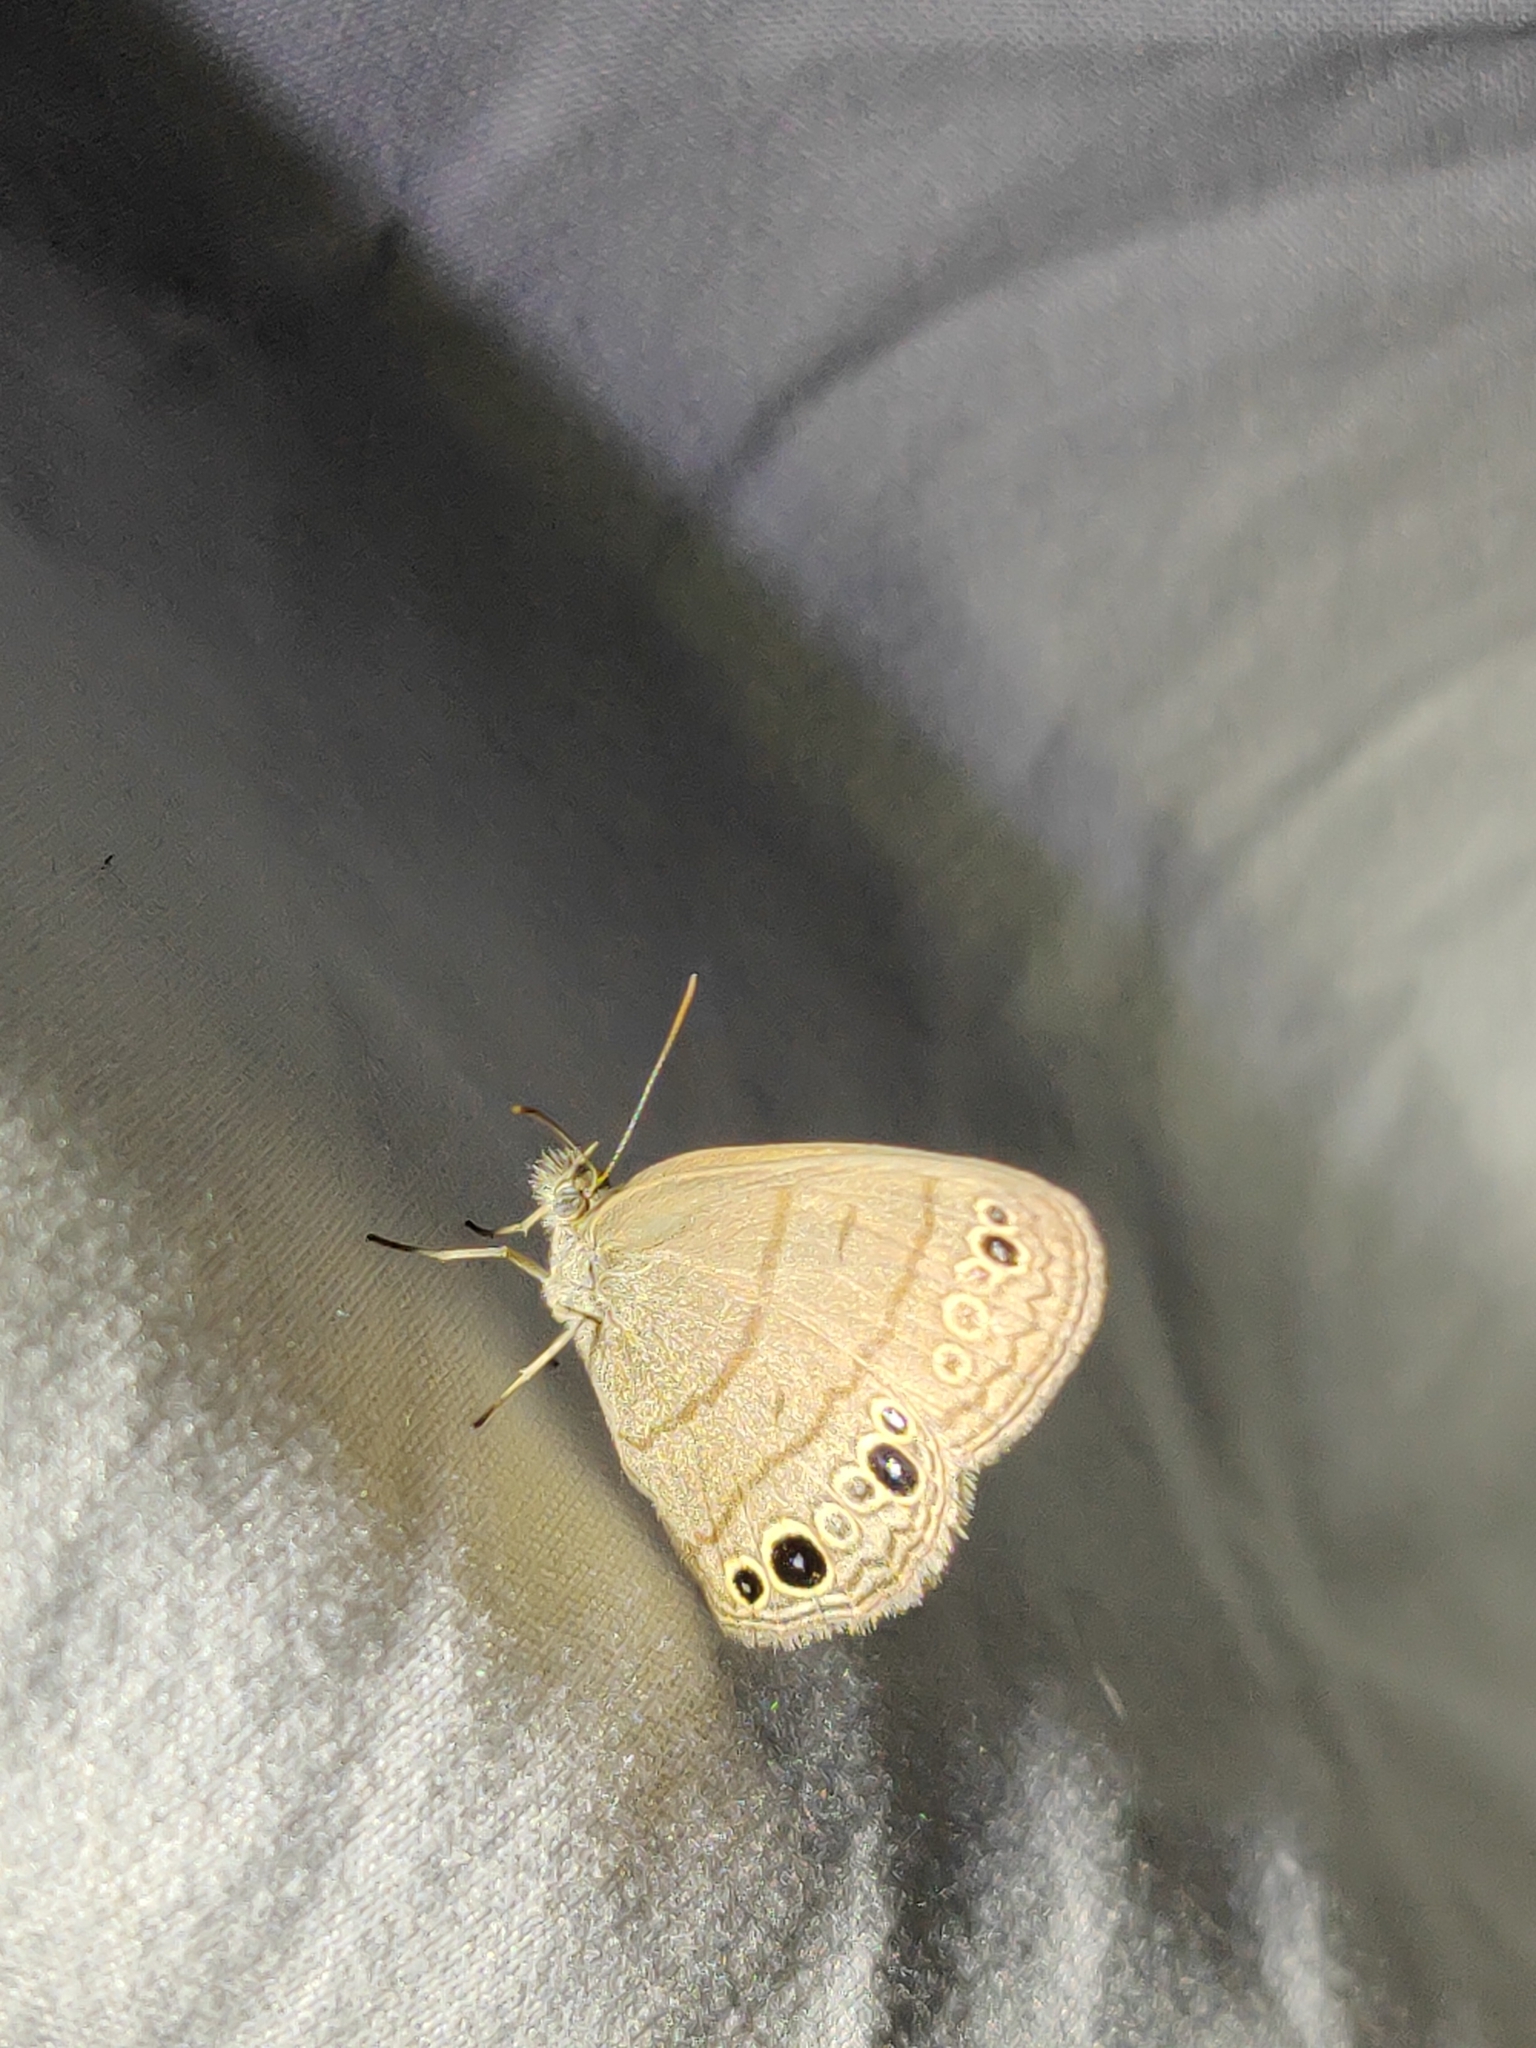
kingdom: Animalia
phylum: Arthropoda
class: Insecta
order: Lepidoptera
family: Nymphalidae
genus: Hermeuptychia
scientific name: Hermeuptychia hermes
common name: Hermes satyr
